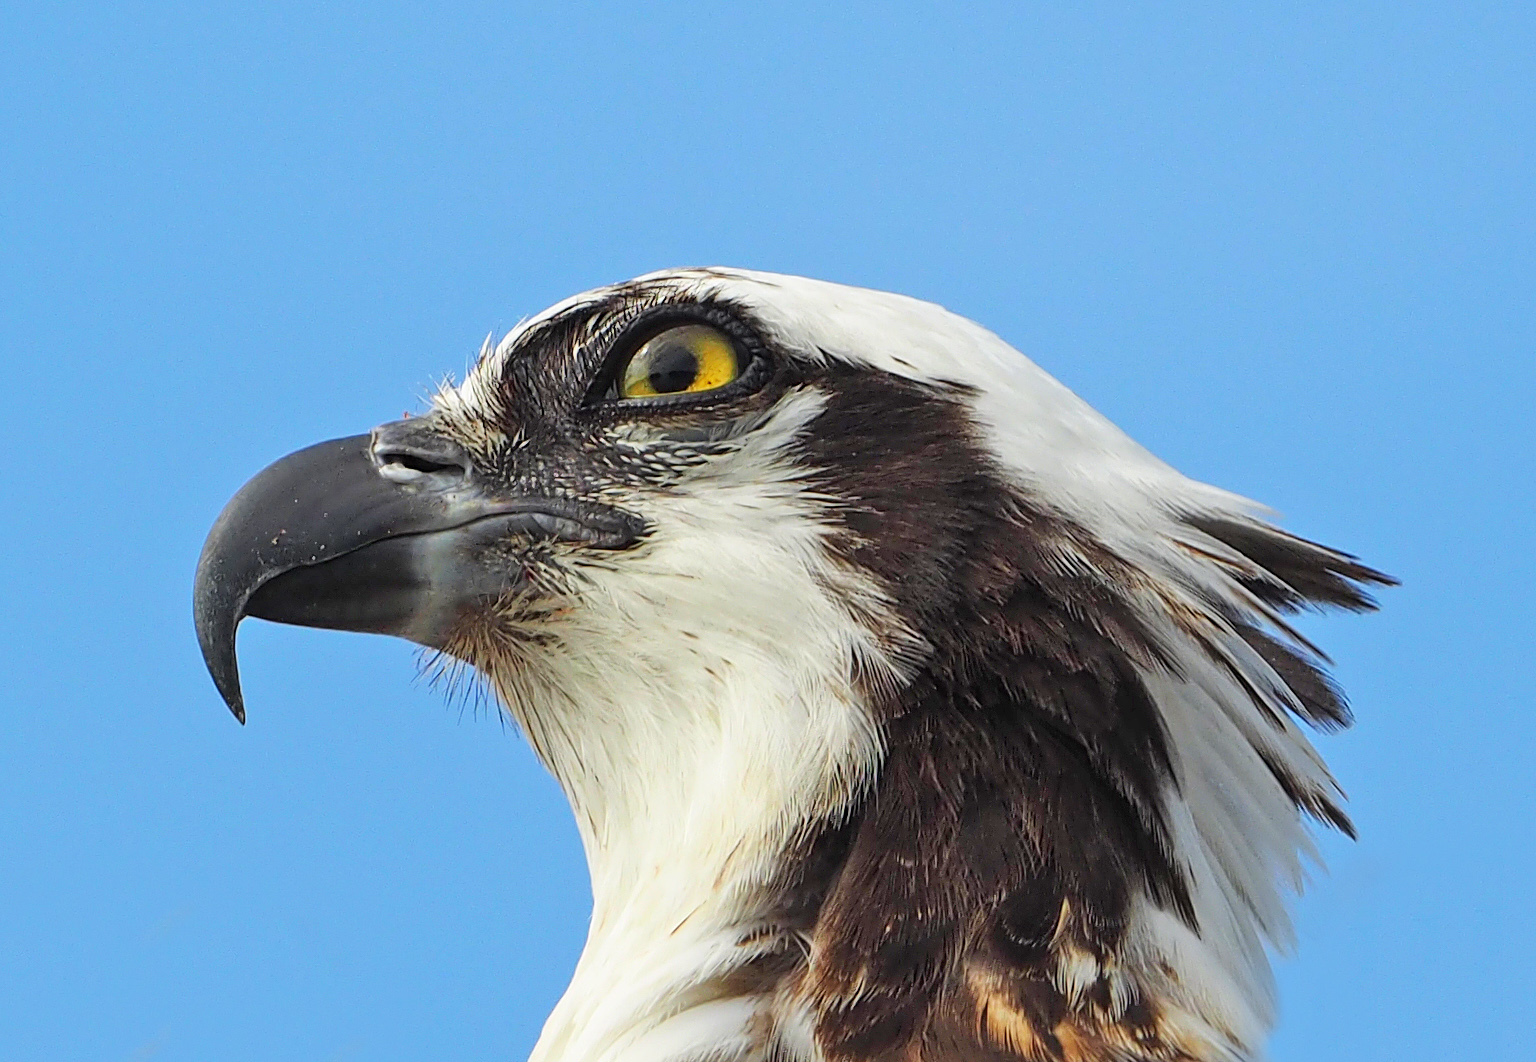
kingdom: Animalia
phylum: Chordata
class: Aves
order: Accipitriformes
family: Pandionidae
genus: Pandion
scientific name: Pandion haliaetus
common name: Osprey
